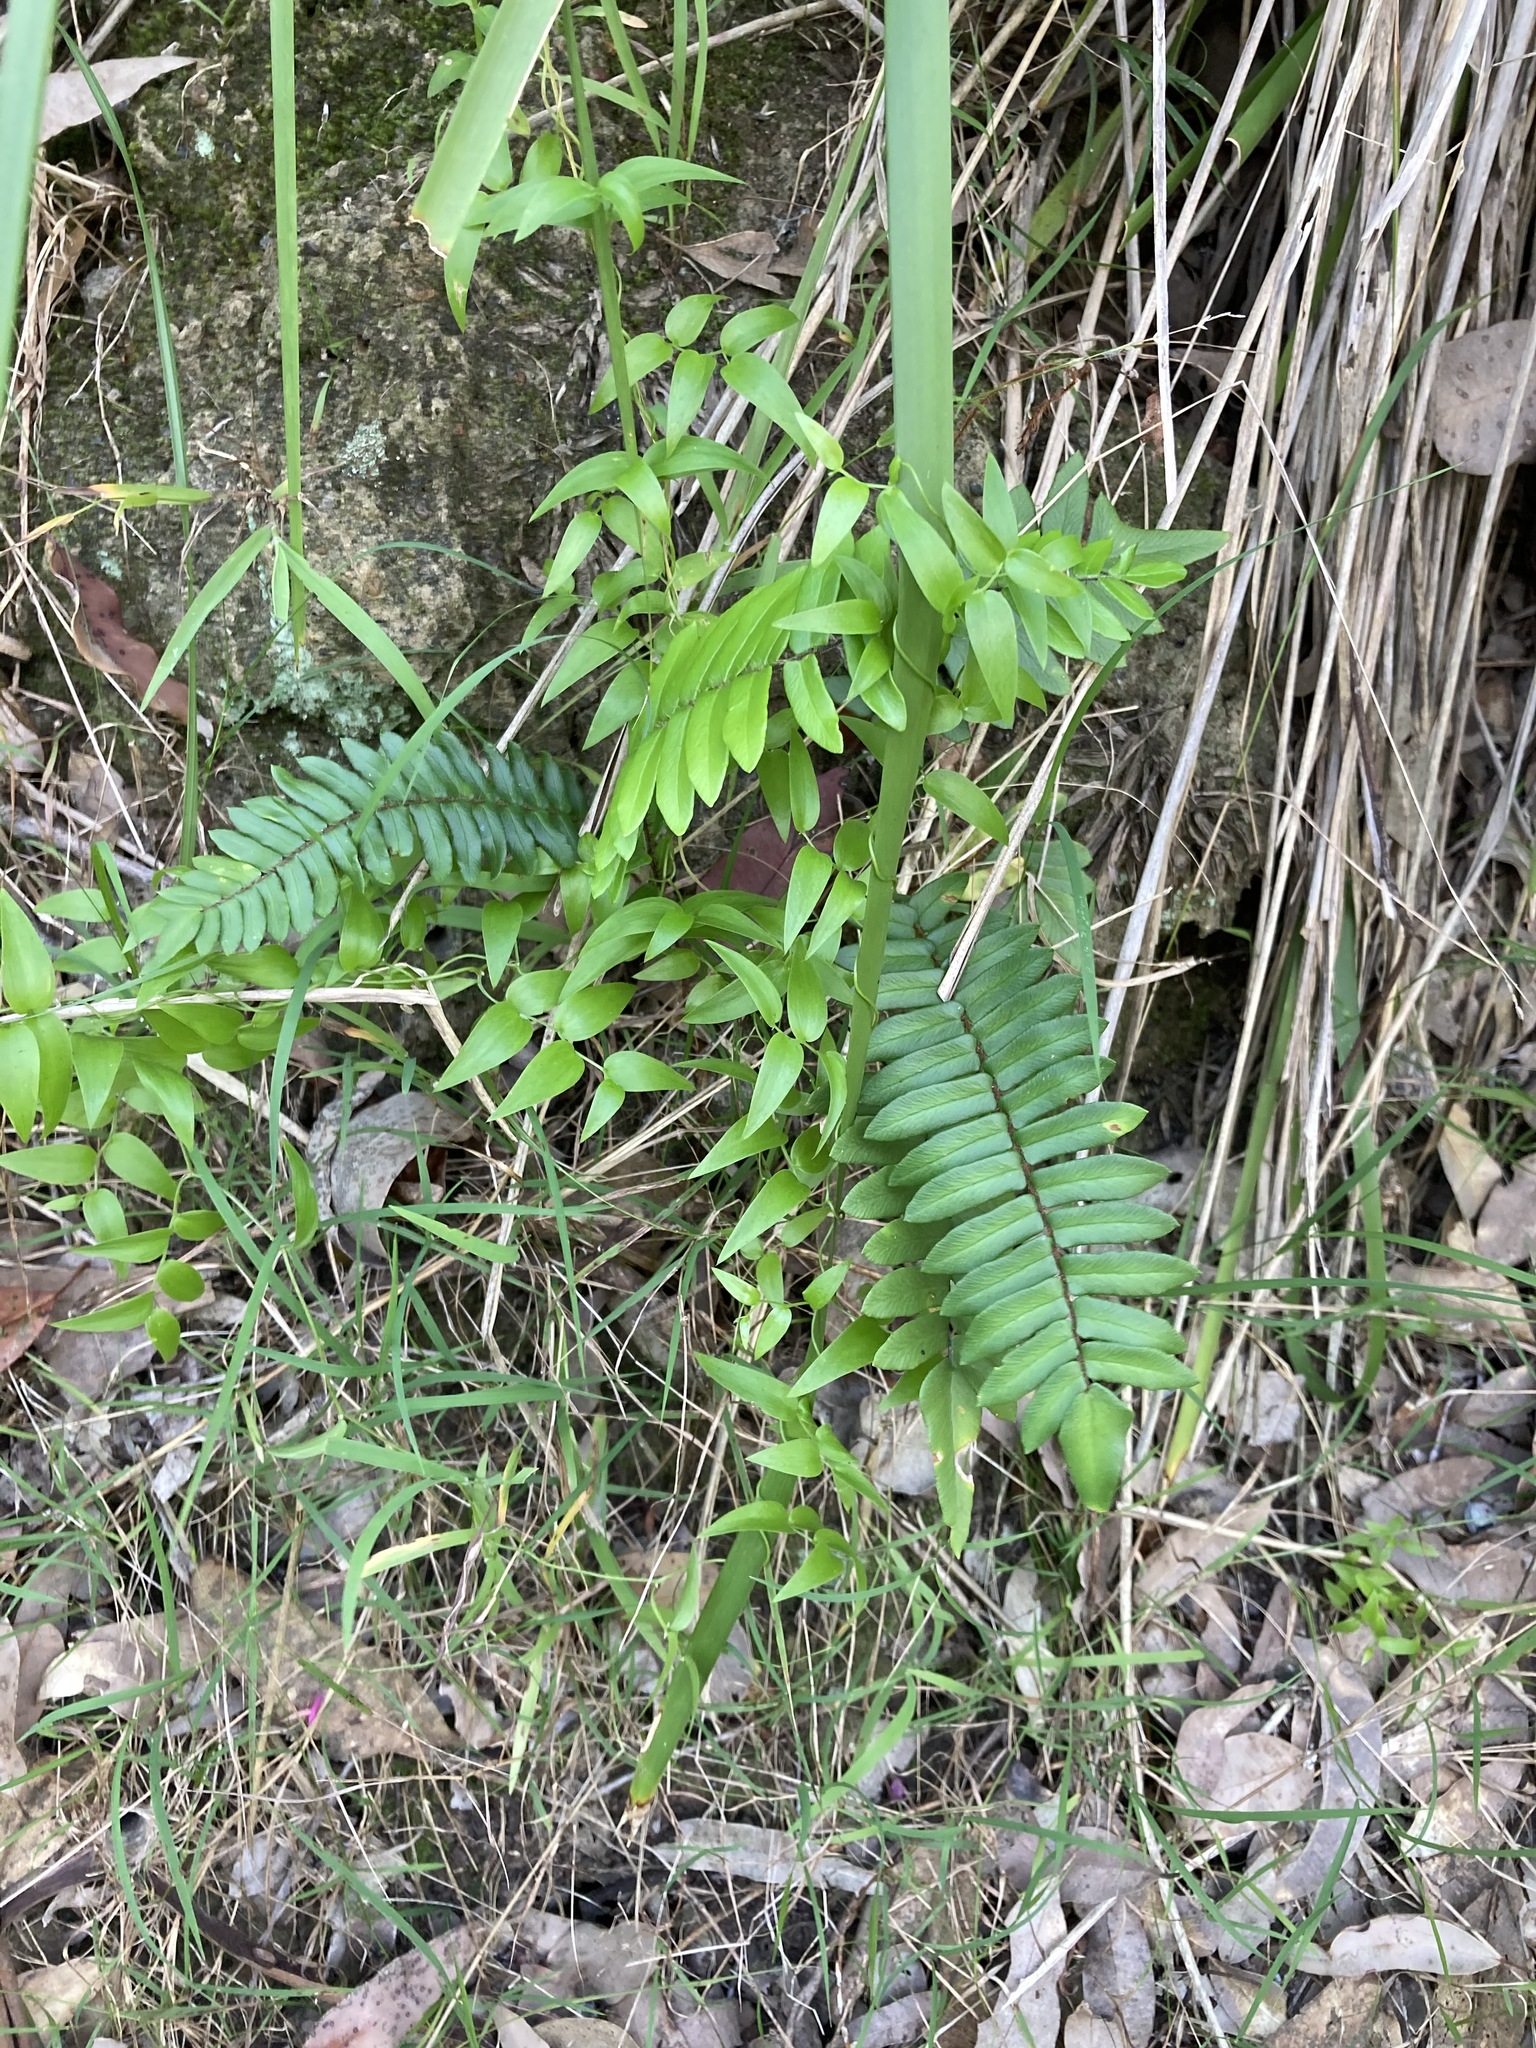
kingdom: Plantae
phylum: Tracheophyta
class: Polypodiopsida
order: Polypodiales
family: Pteridaceae
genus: Pellaea
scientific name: Pellaea falcata
